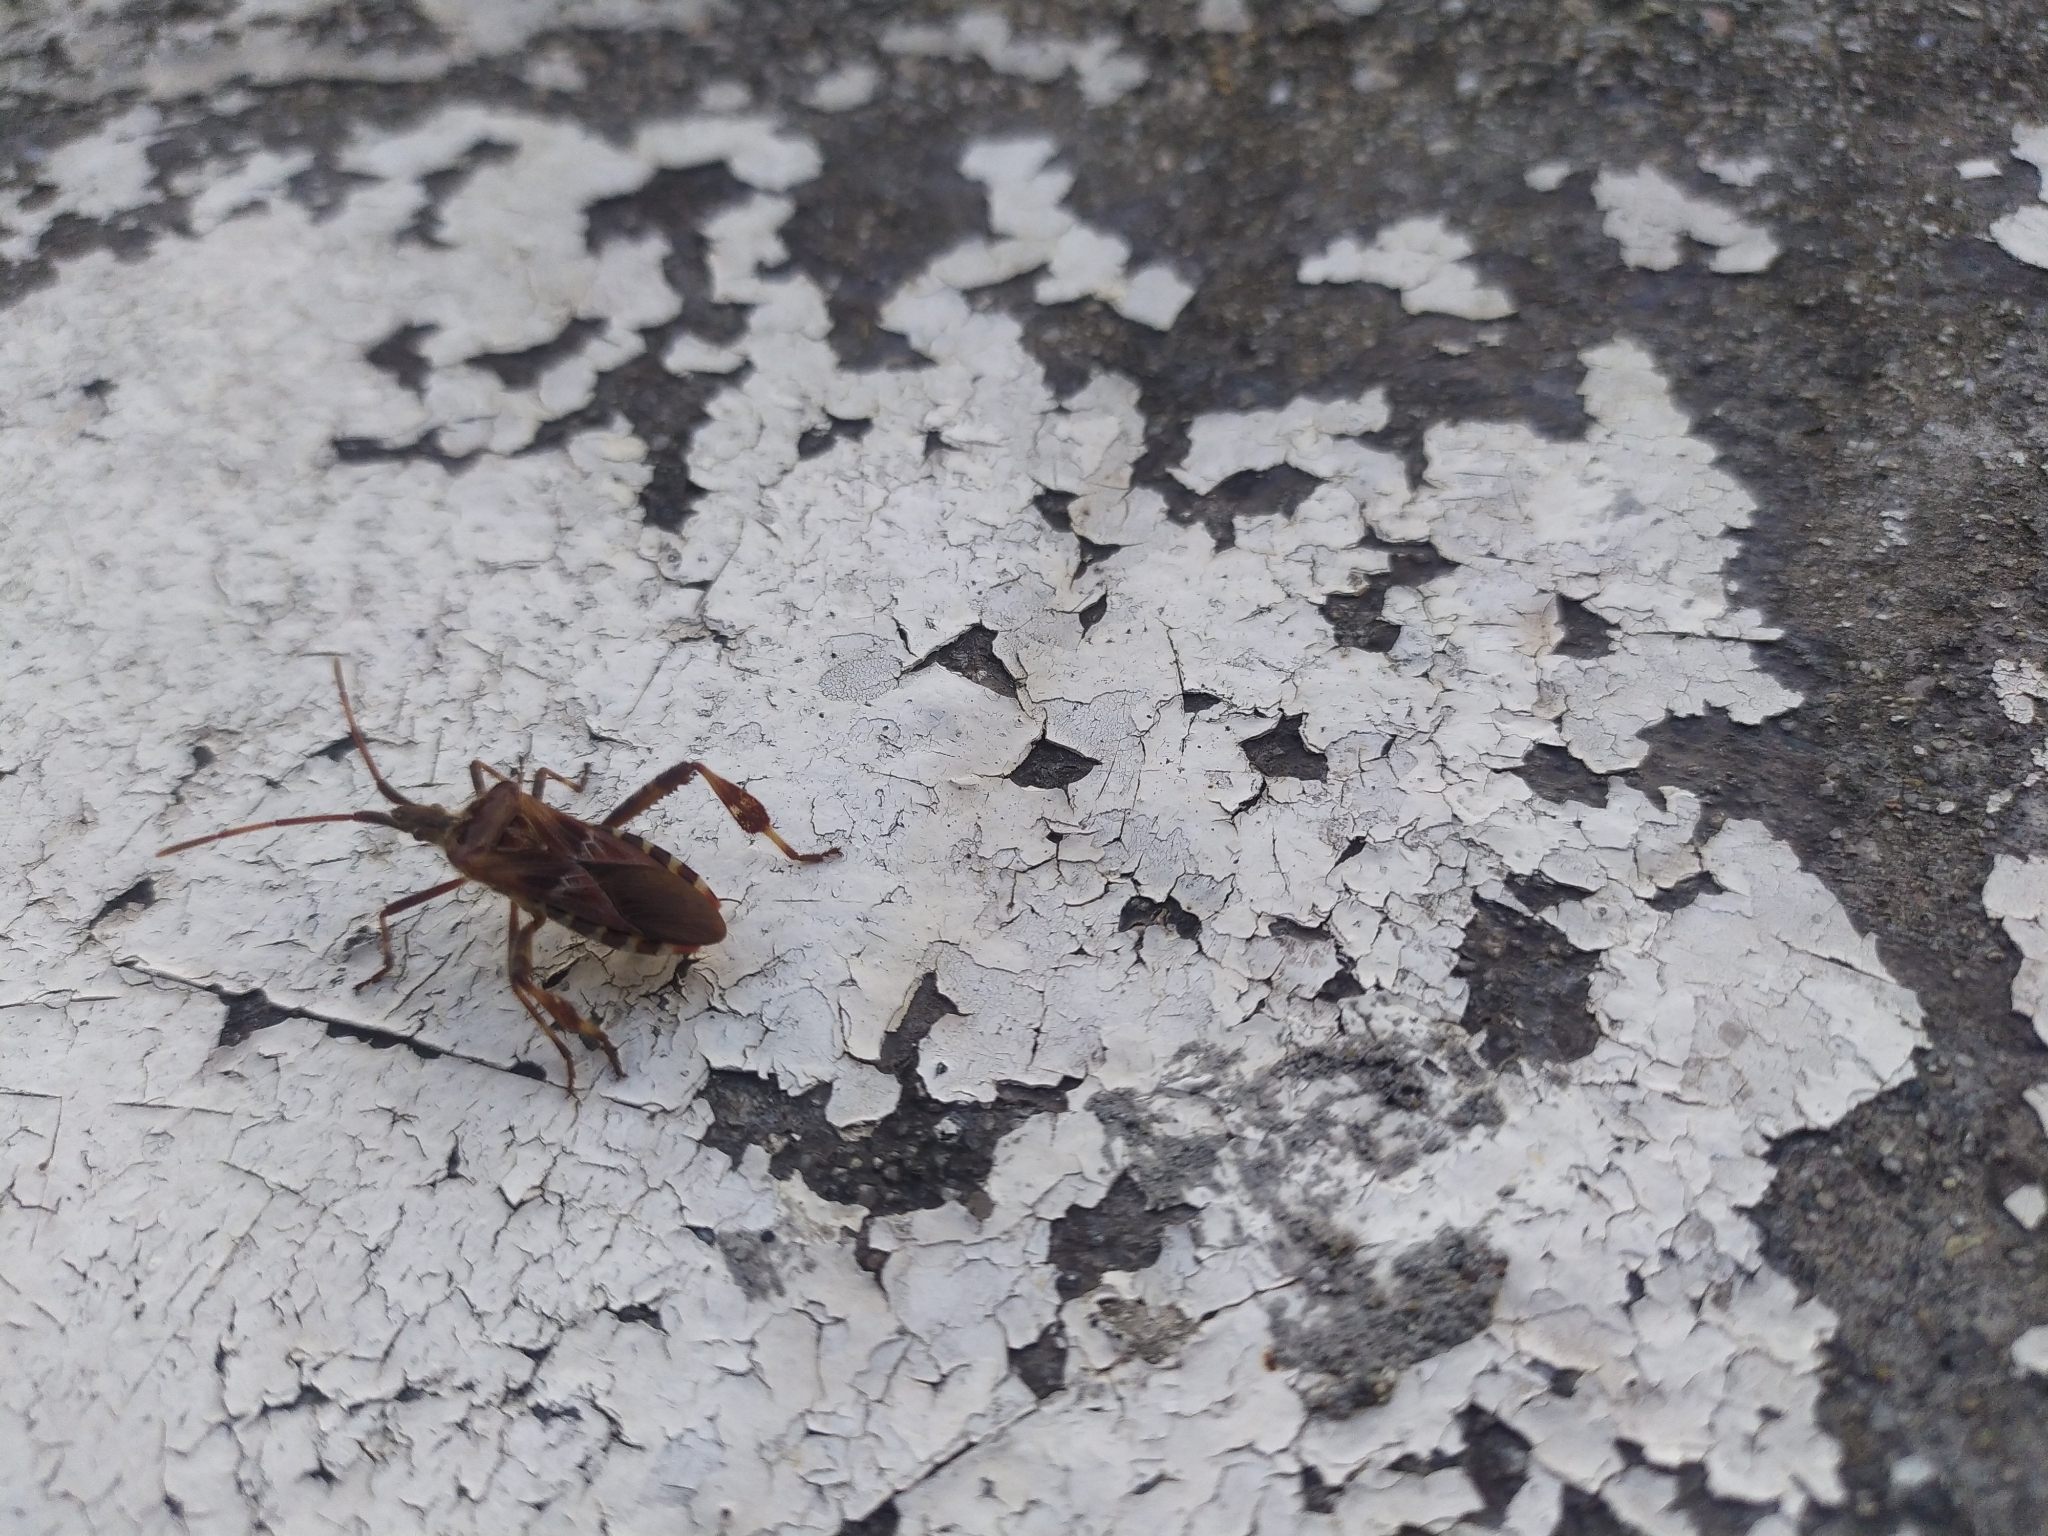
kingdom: Animalia
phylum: Arthropoda
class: Insecta
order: Hemiptera
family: Coreidae
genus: Leptoglossus
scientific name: Leptoglossus occidentalis
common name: Western conifer-seed bug
